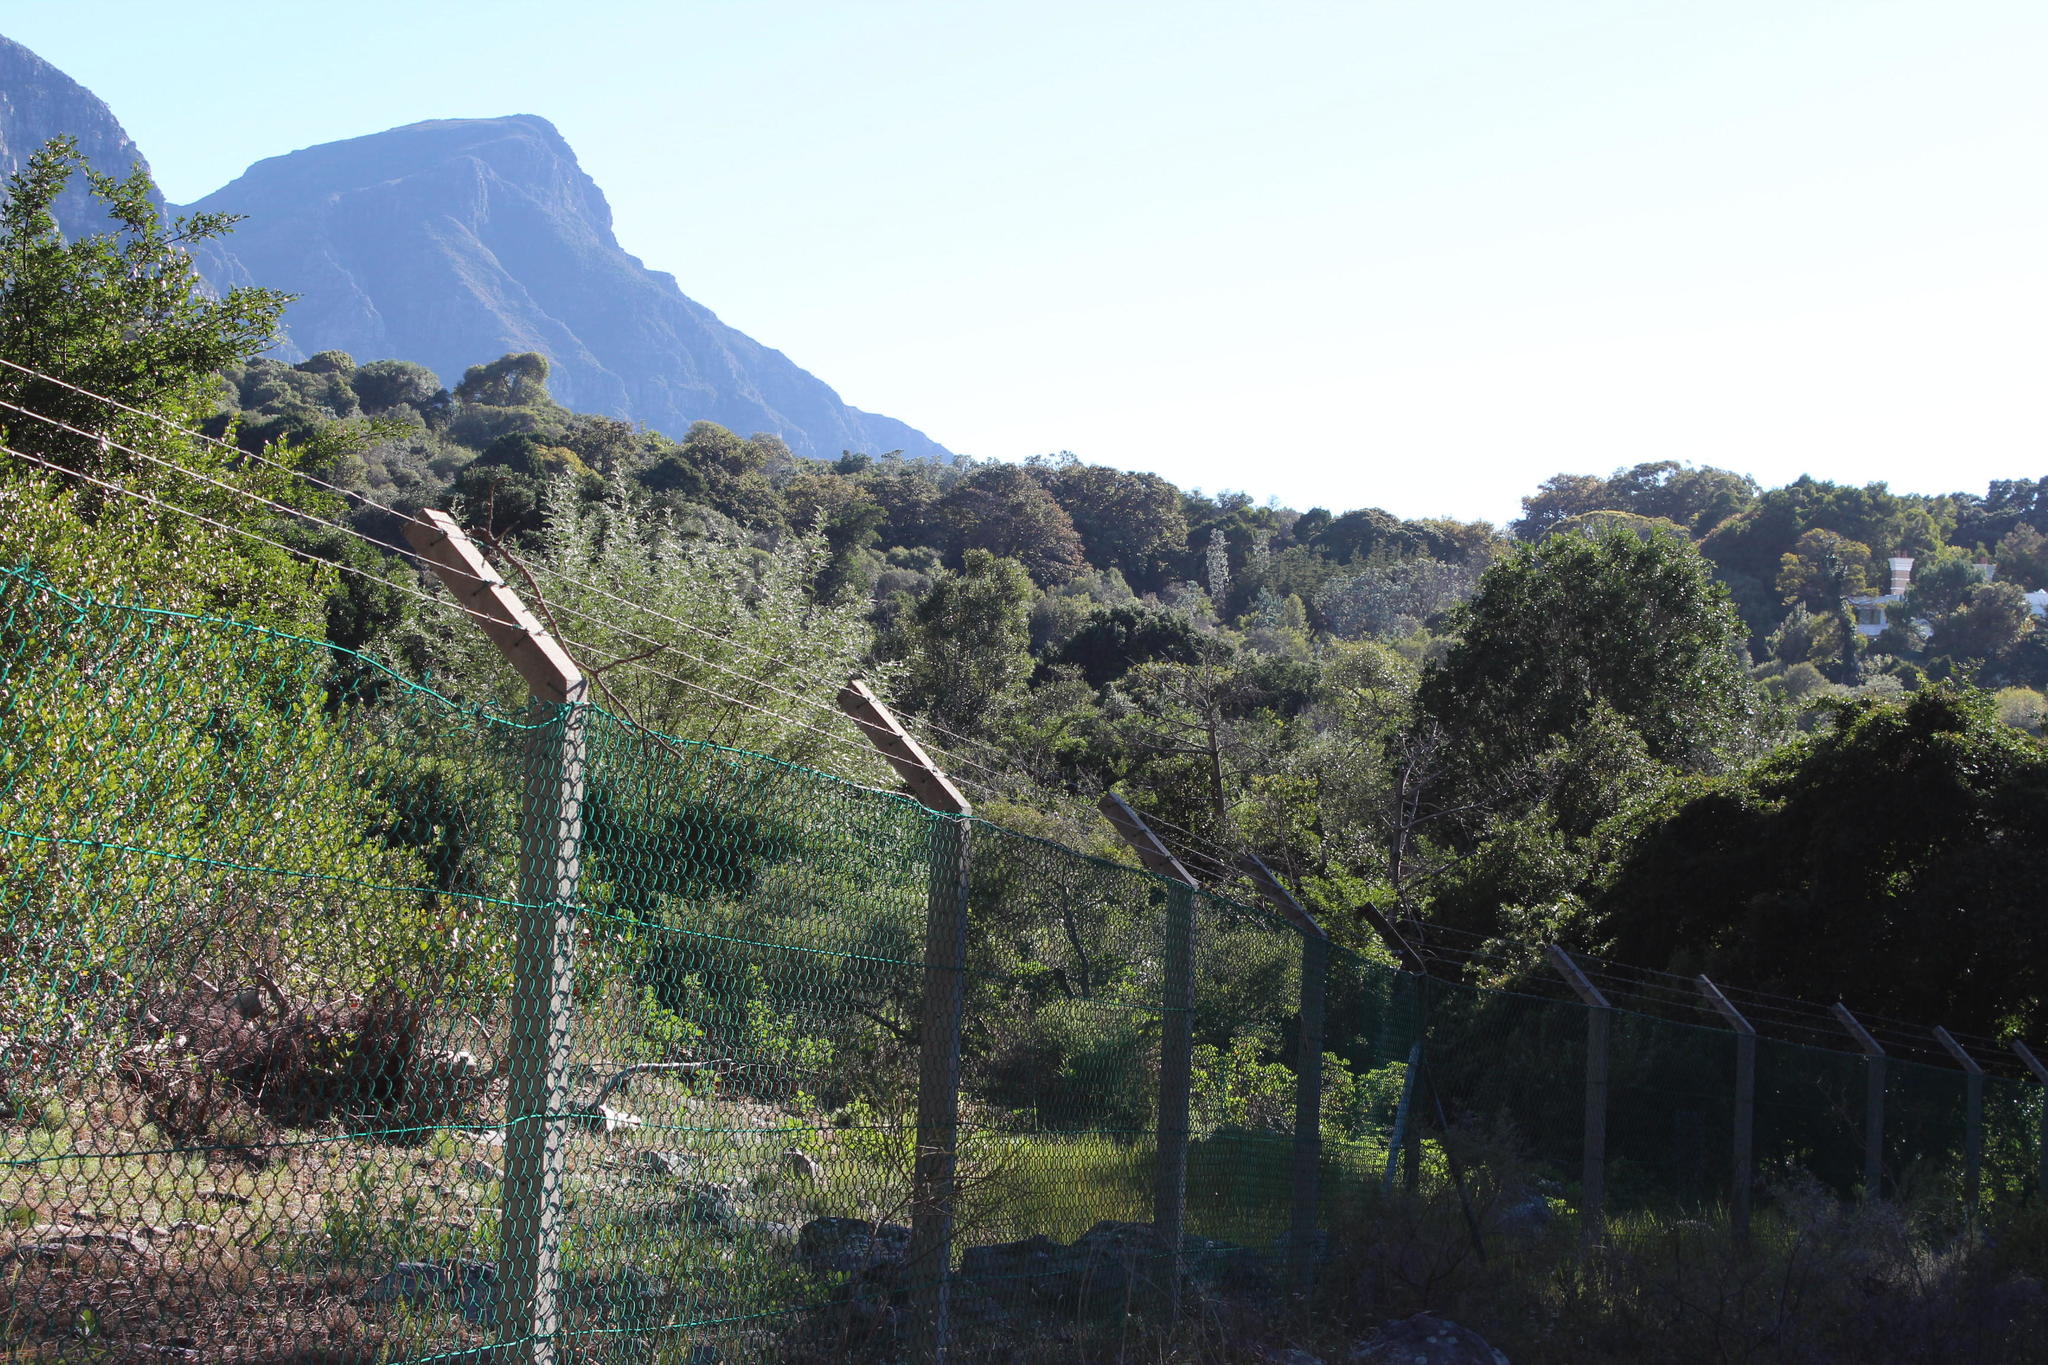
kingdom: Plantae
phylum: Tracheophyta
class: Magnoliopsida
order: Proteales
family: Proteaceae
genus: Leucadendron
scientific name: Leucadendron argenteum
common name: Cape silver tree
